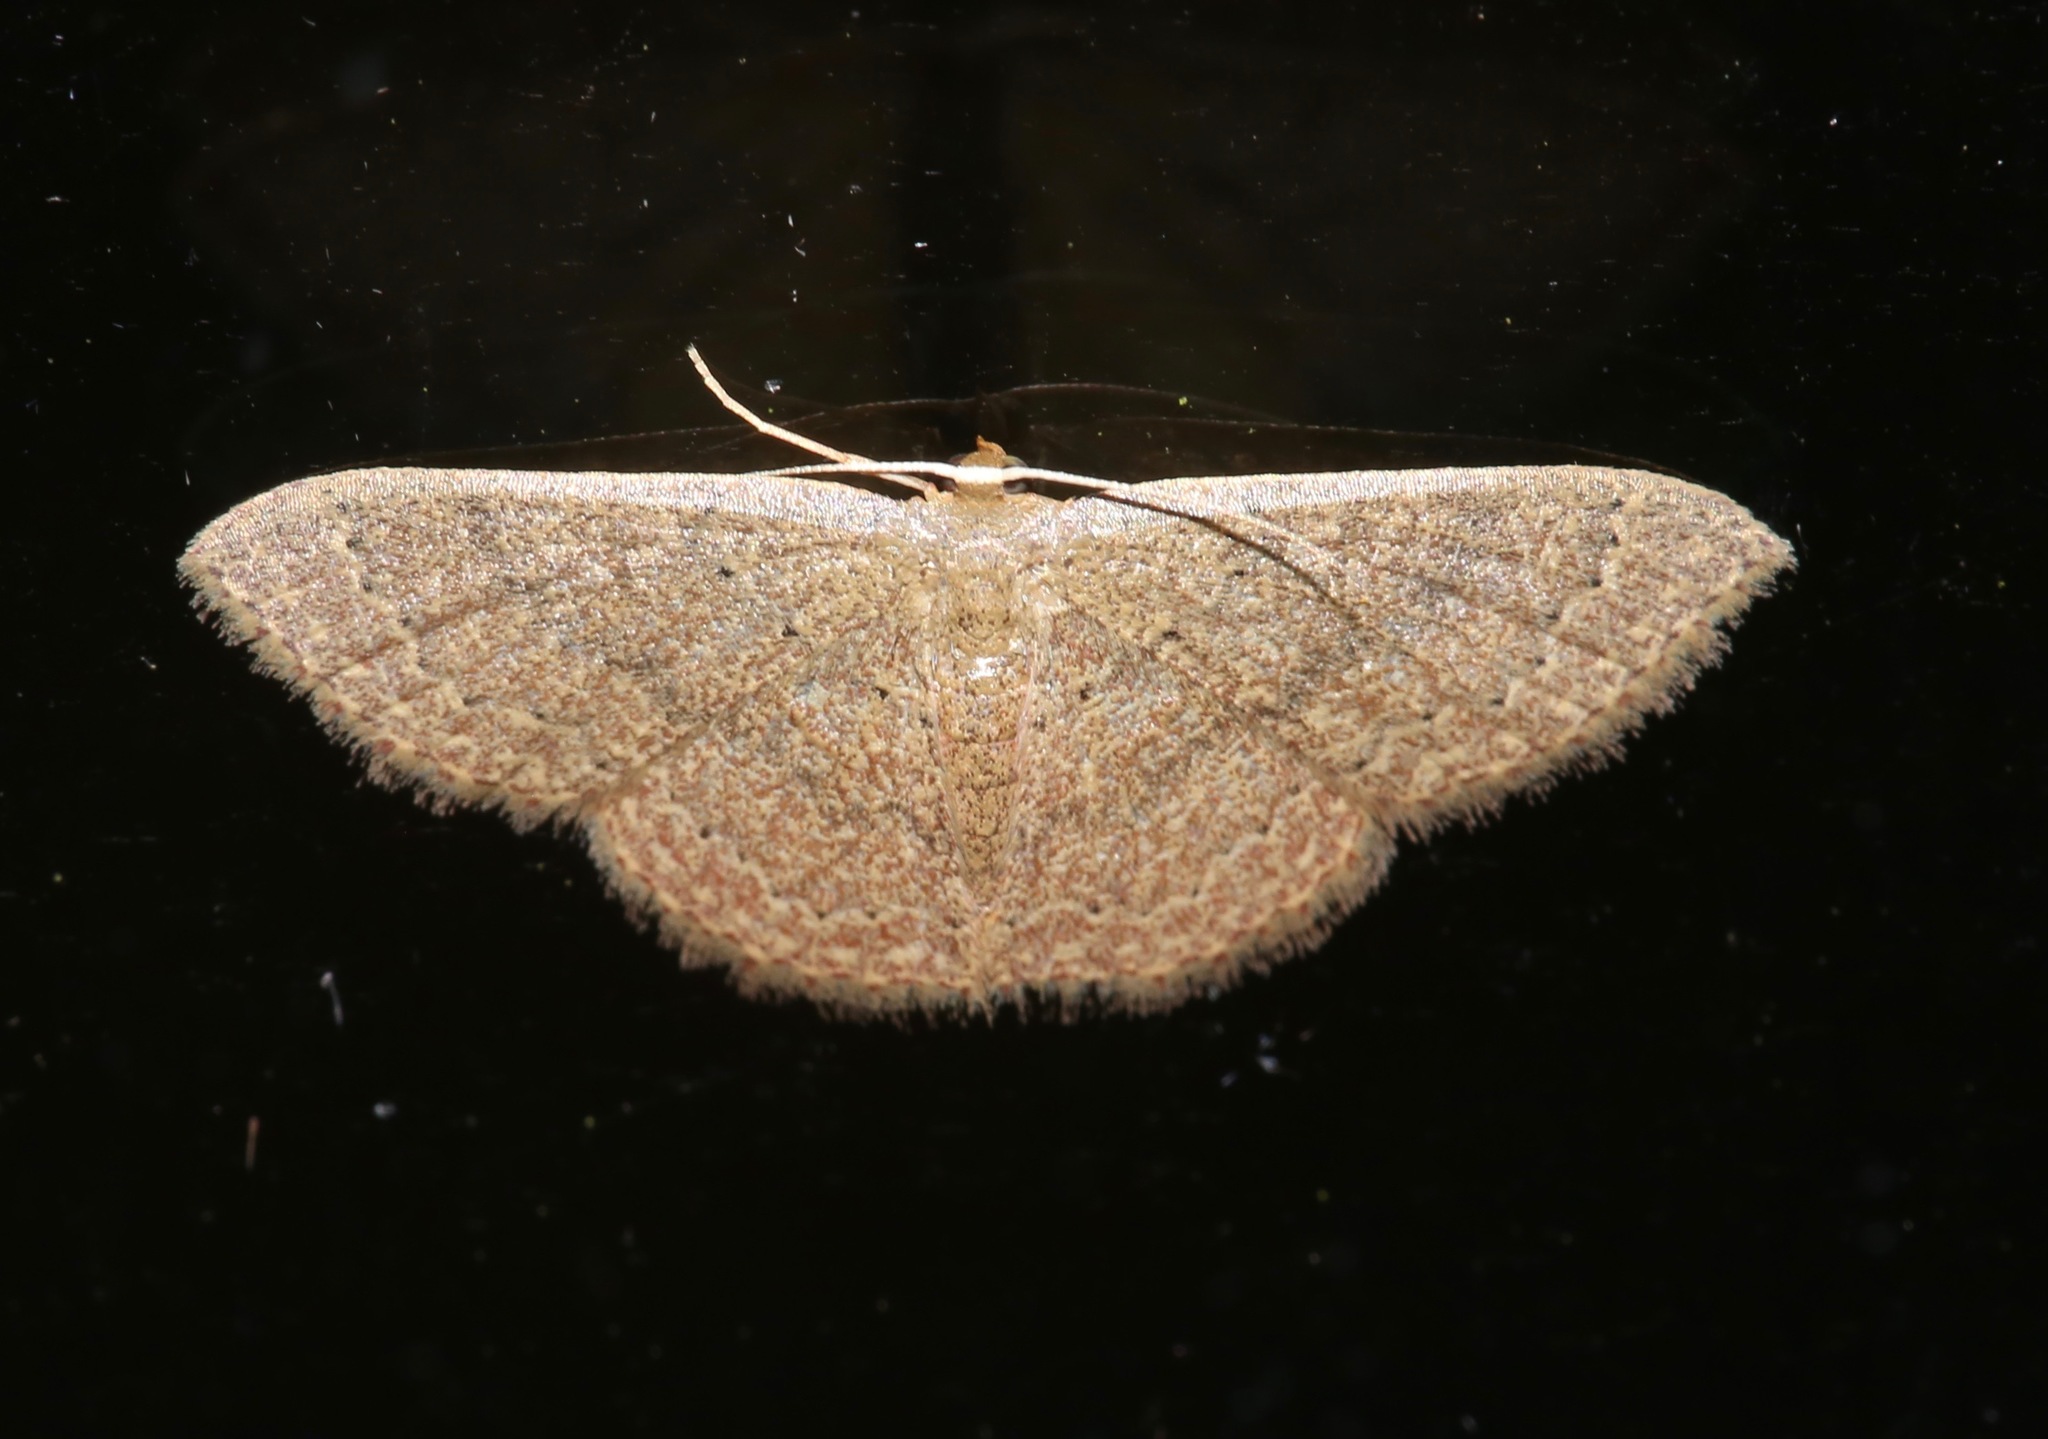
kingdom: Animalia
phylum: Arthropoda
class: Insecta
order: Lepidoptera
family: Geometridae
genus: Pleuroprucha
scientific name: Pleuroprucha insulsaria
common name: Common tan wave
